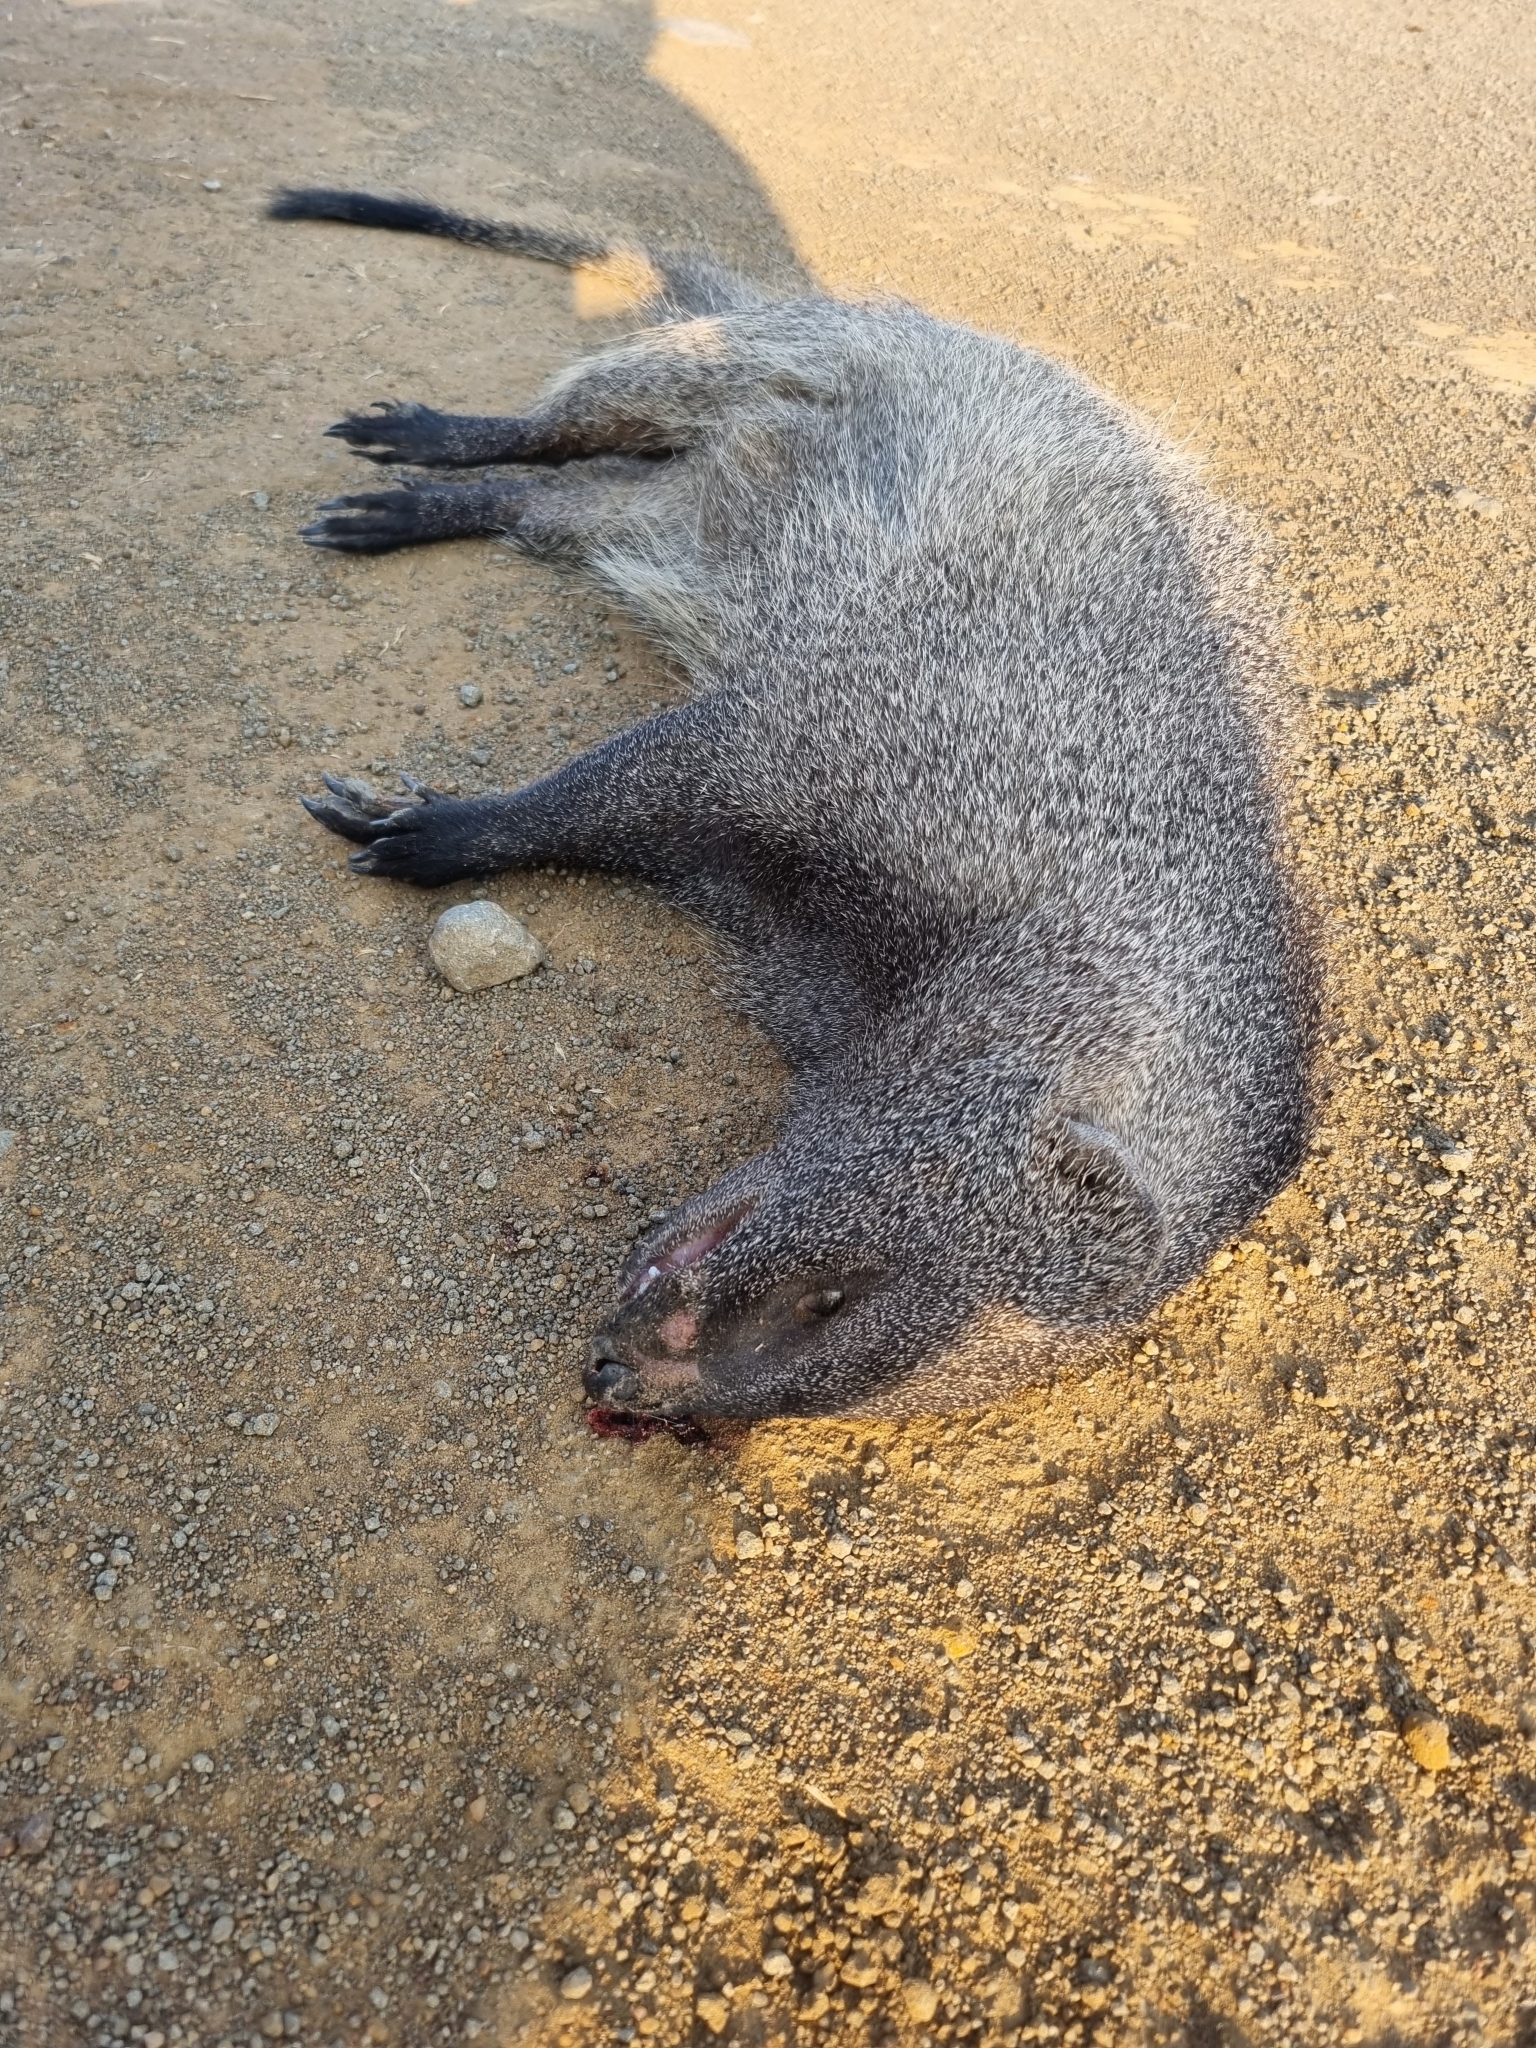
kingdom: Animalia
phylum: Chordata
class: Mammalia
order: Carnivora
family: Herpestidae
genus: Herpestes
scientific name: Herpestes ichneumon
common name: Egyptian mongoose
